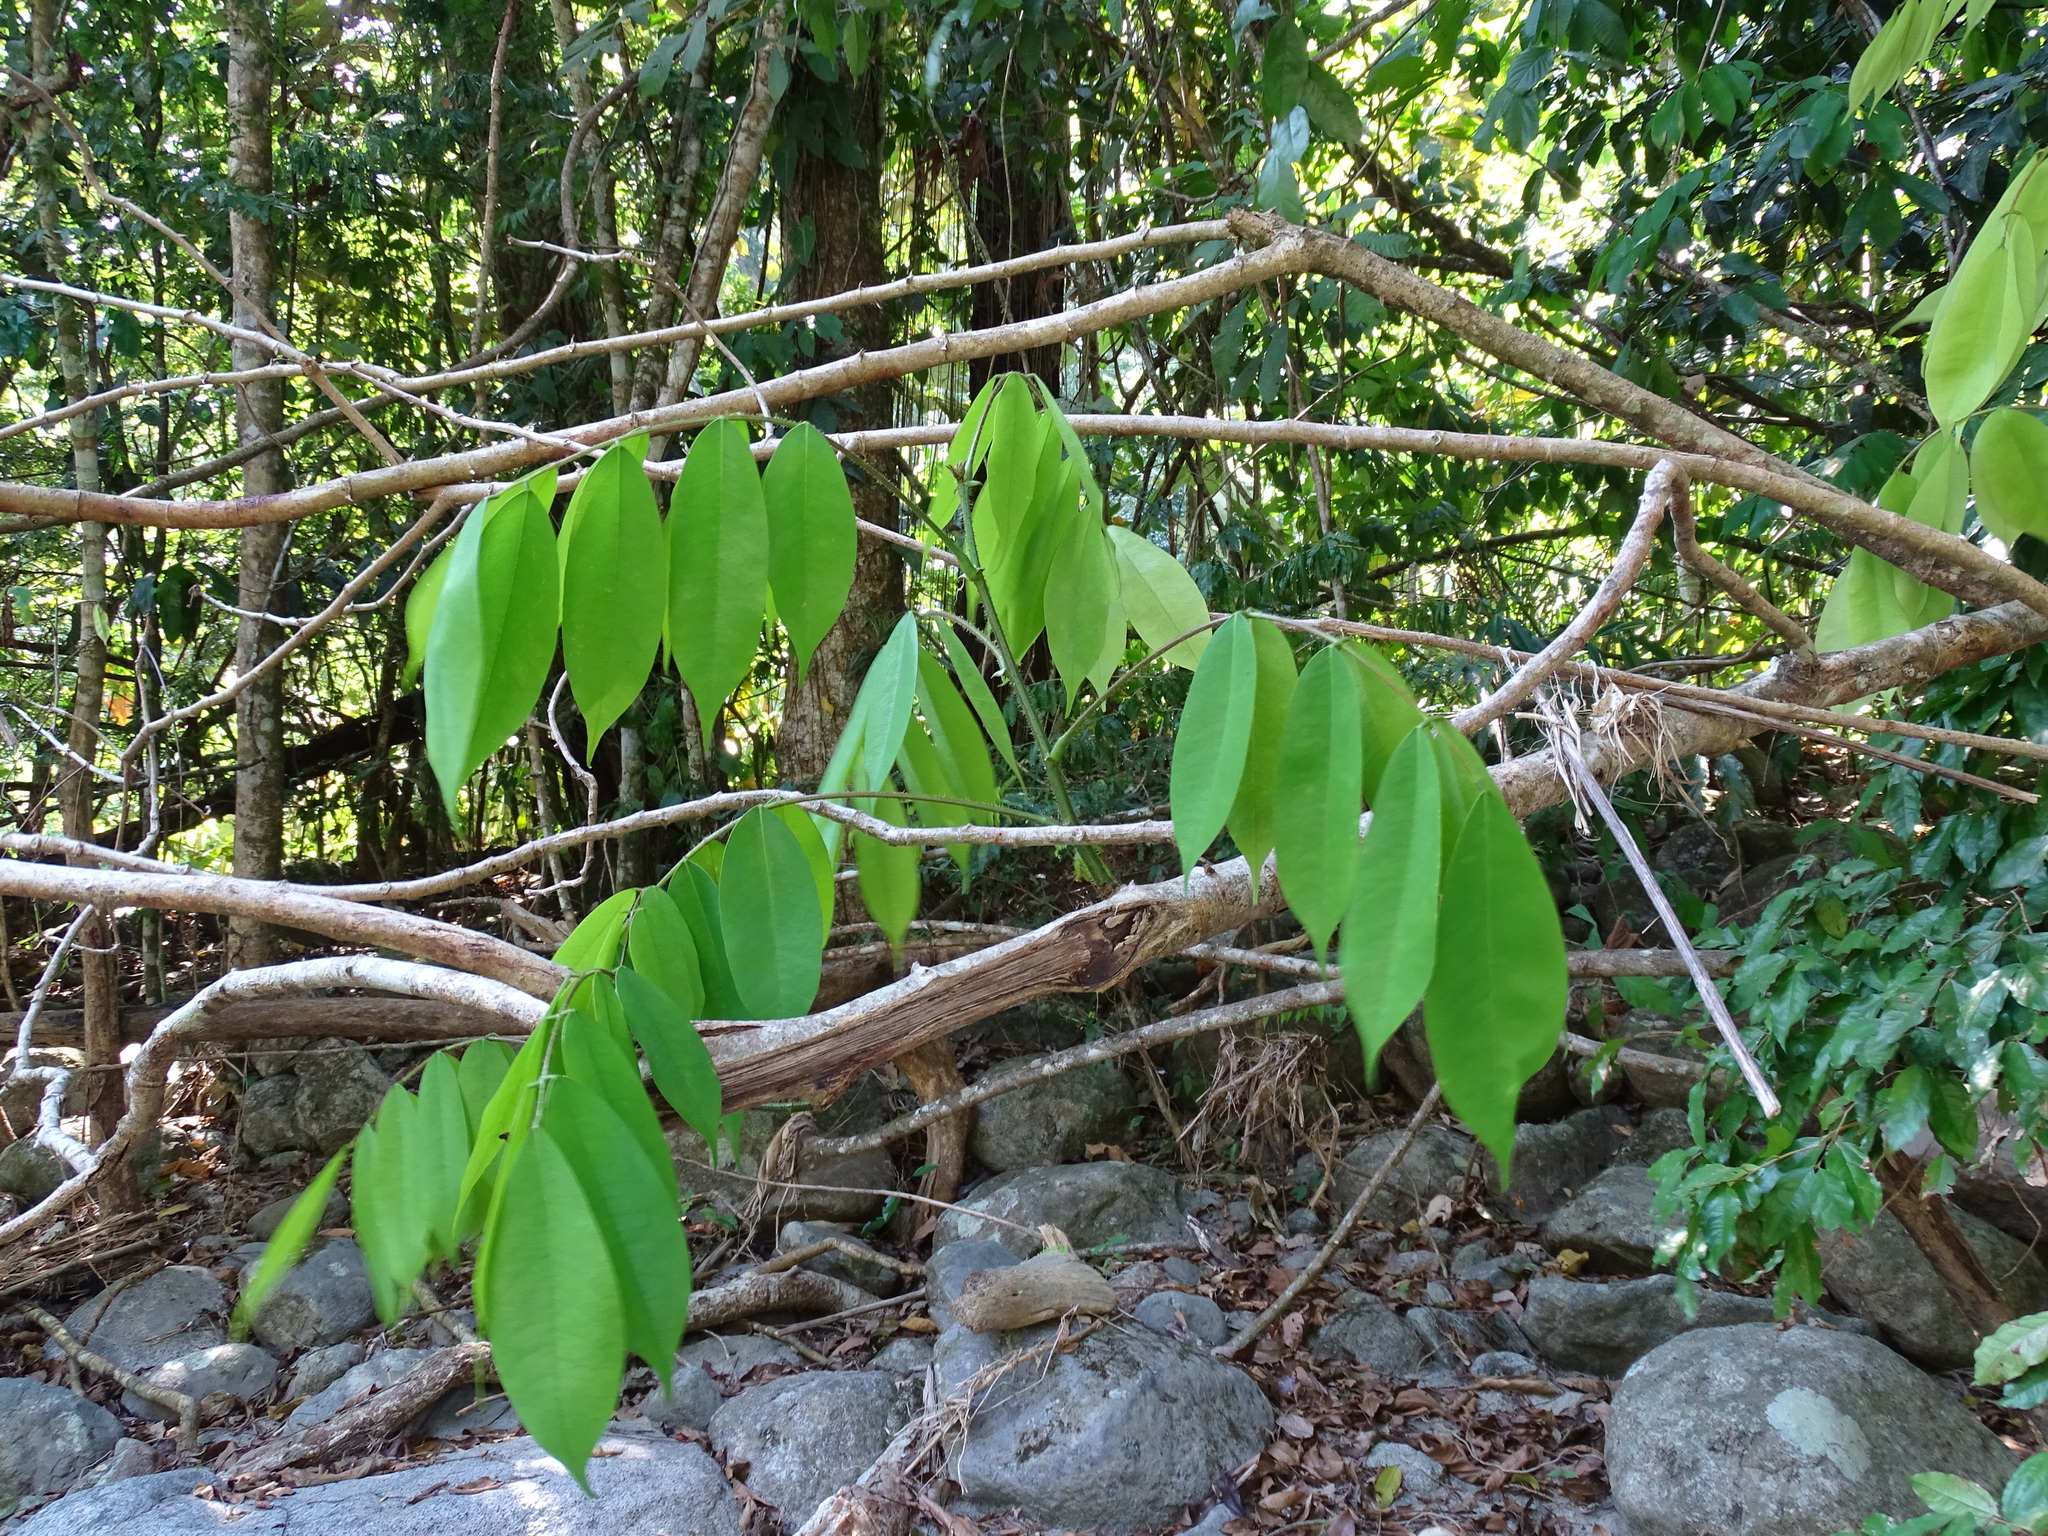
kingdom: Plantae
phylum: Tracheophyta
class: Magnoliopsida
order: Fabales
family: Fabaceae
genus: Machaerium
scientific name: Machaerium kegelii
